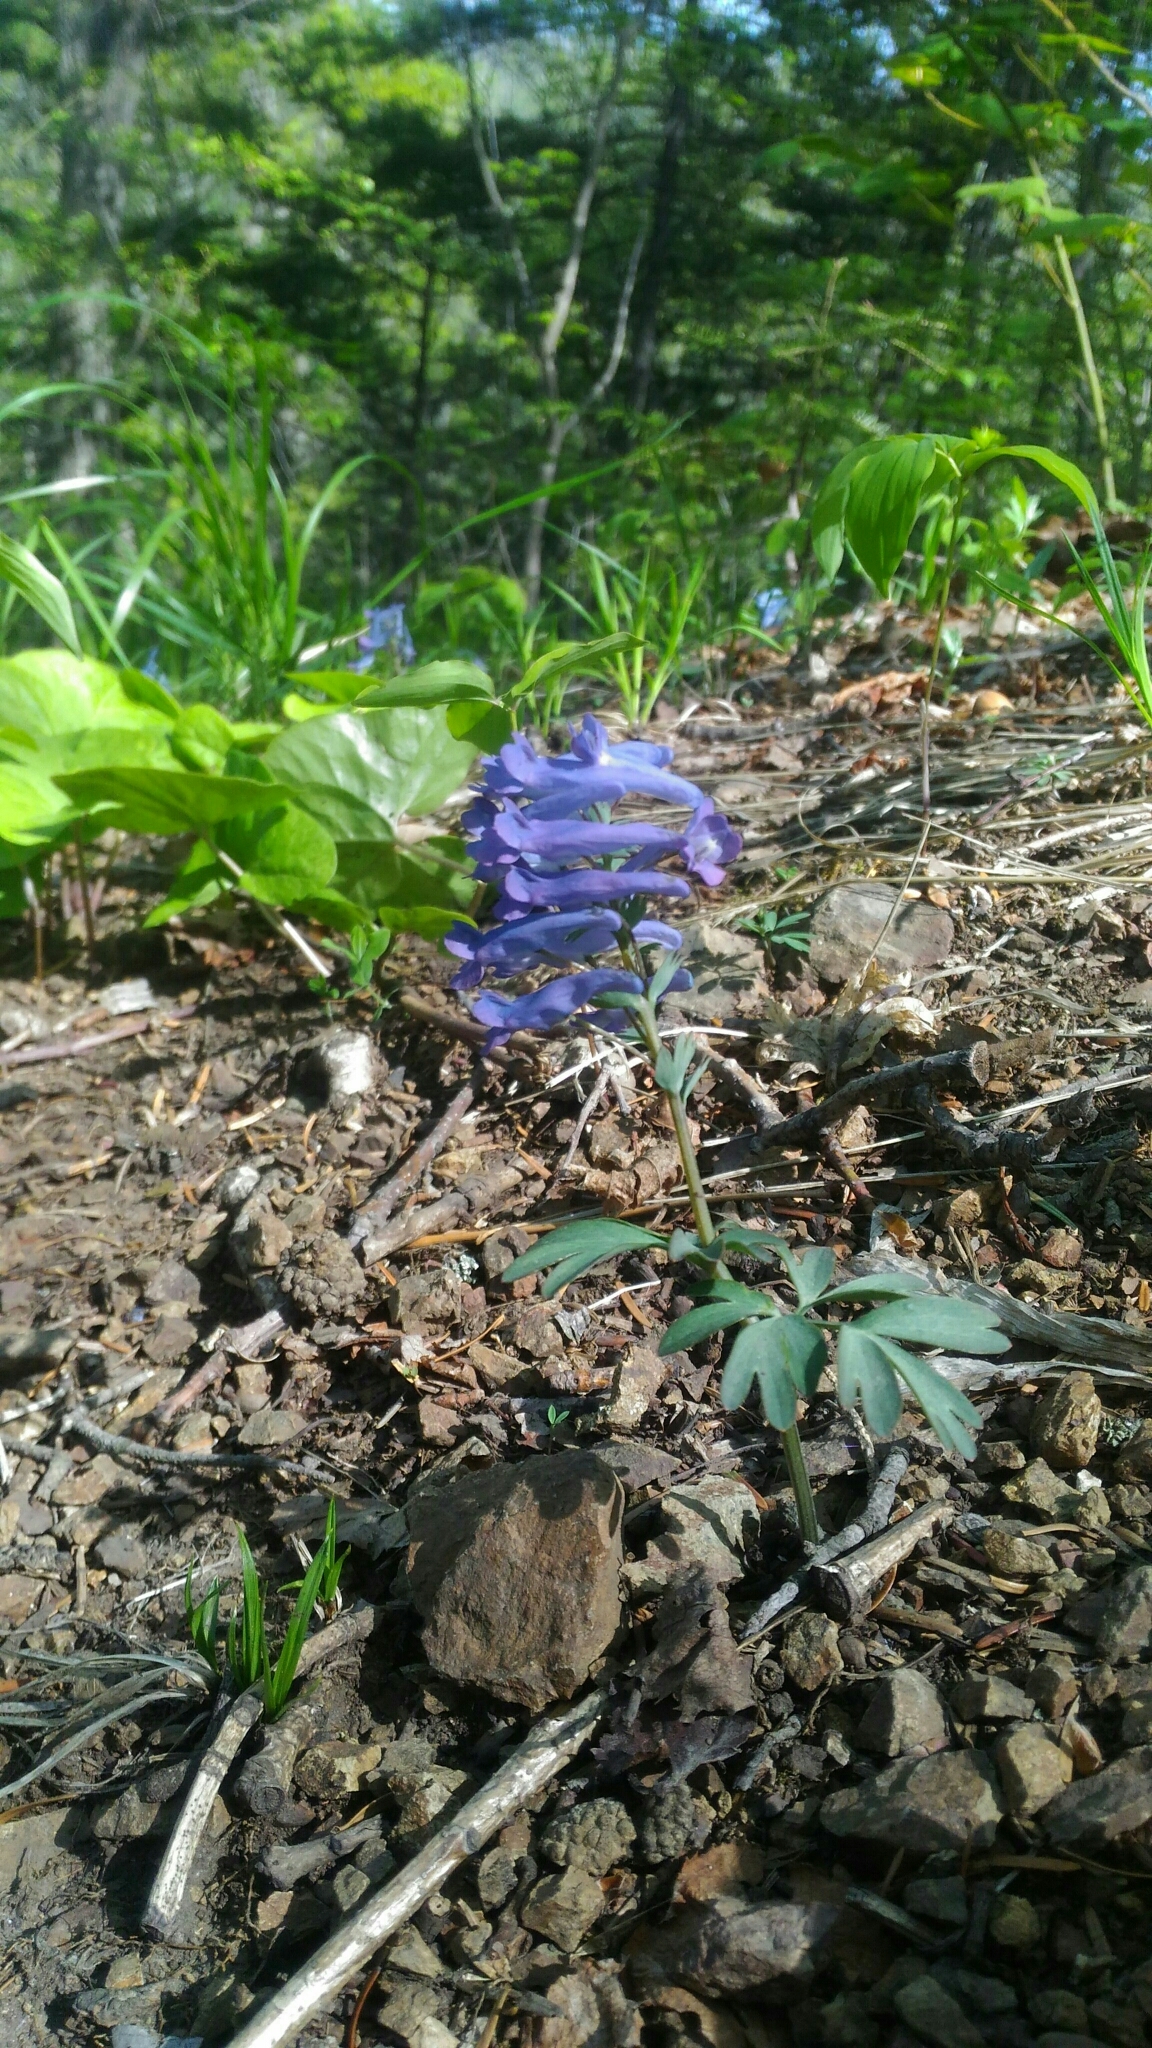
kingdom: Plantae
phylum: Tracheophyta
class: Magnoliopsida
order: Ranunculales
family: Papaveraceae
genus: Corydalis
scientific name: Corydalis turtschaninovii
